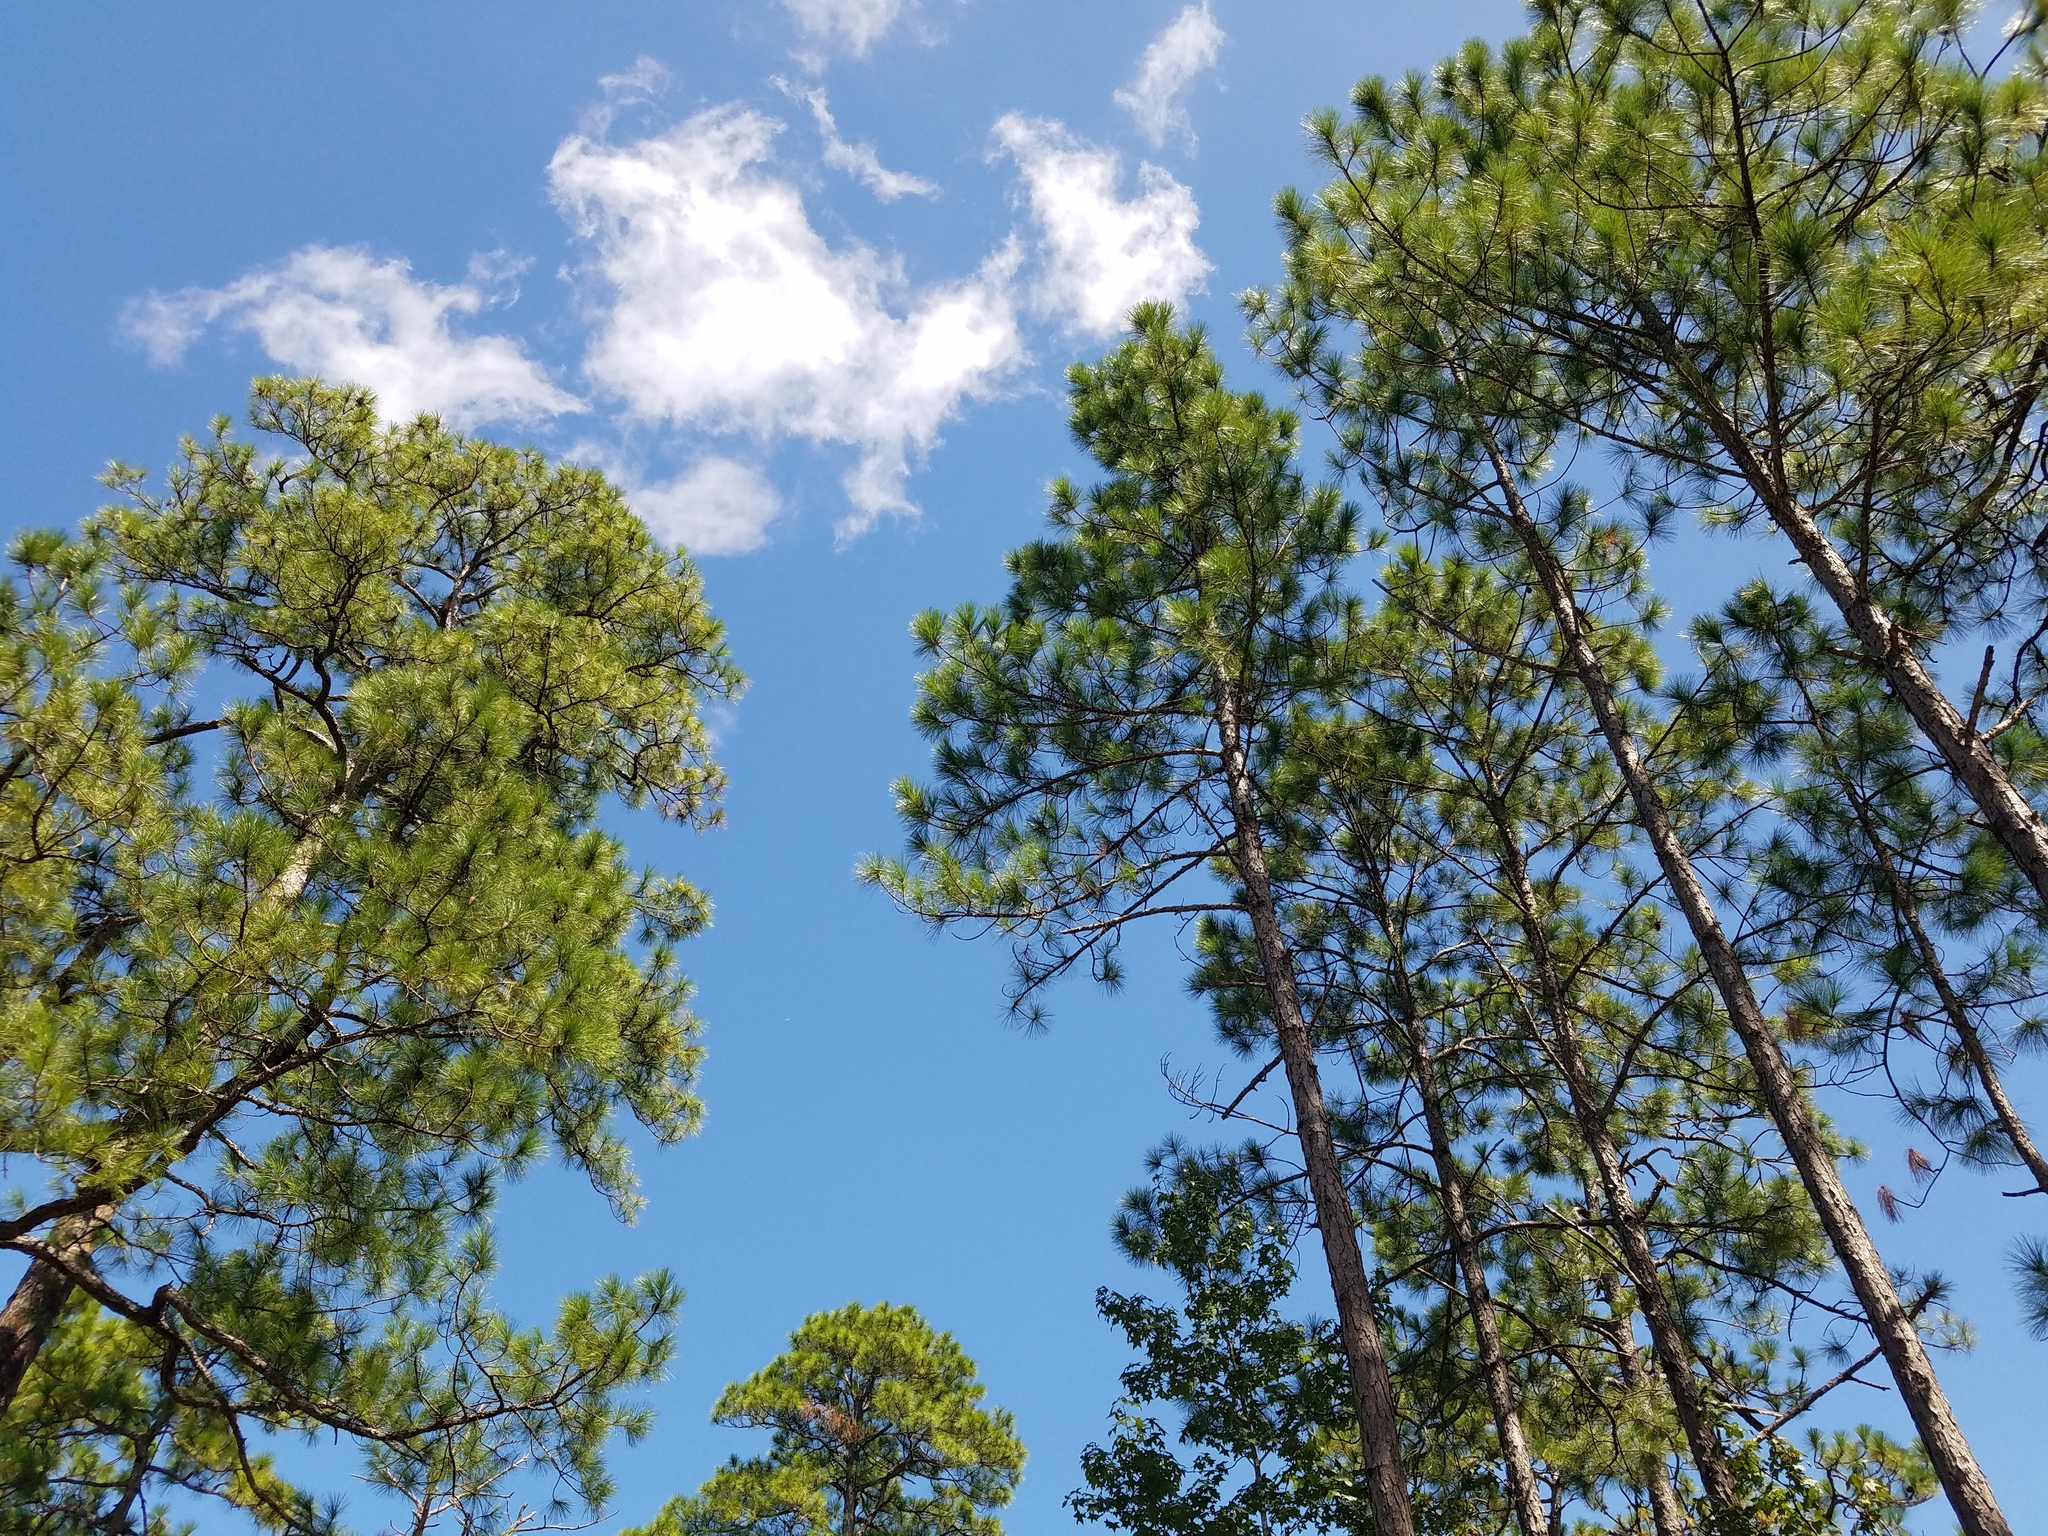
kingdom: Plantae
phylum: Tracheophyta
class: Pinopsida
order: Pinales
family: Pinaceae
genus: Pinus
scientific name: Pinus elliottii
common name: Slash pine
